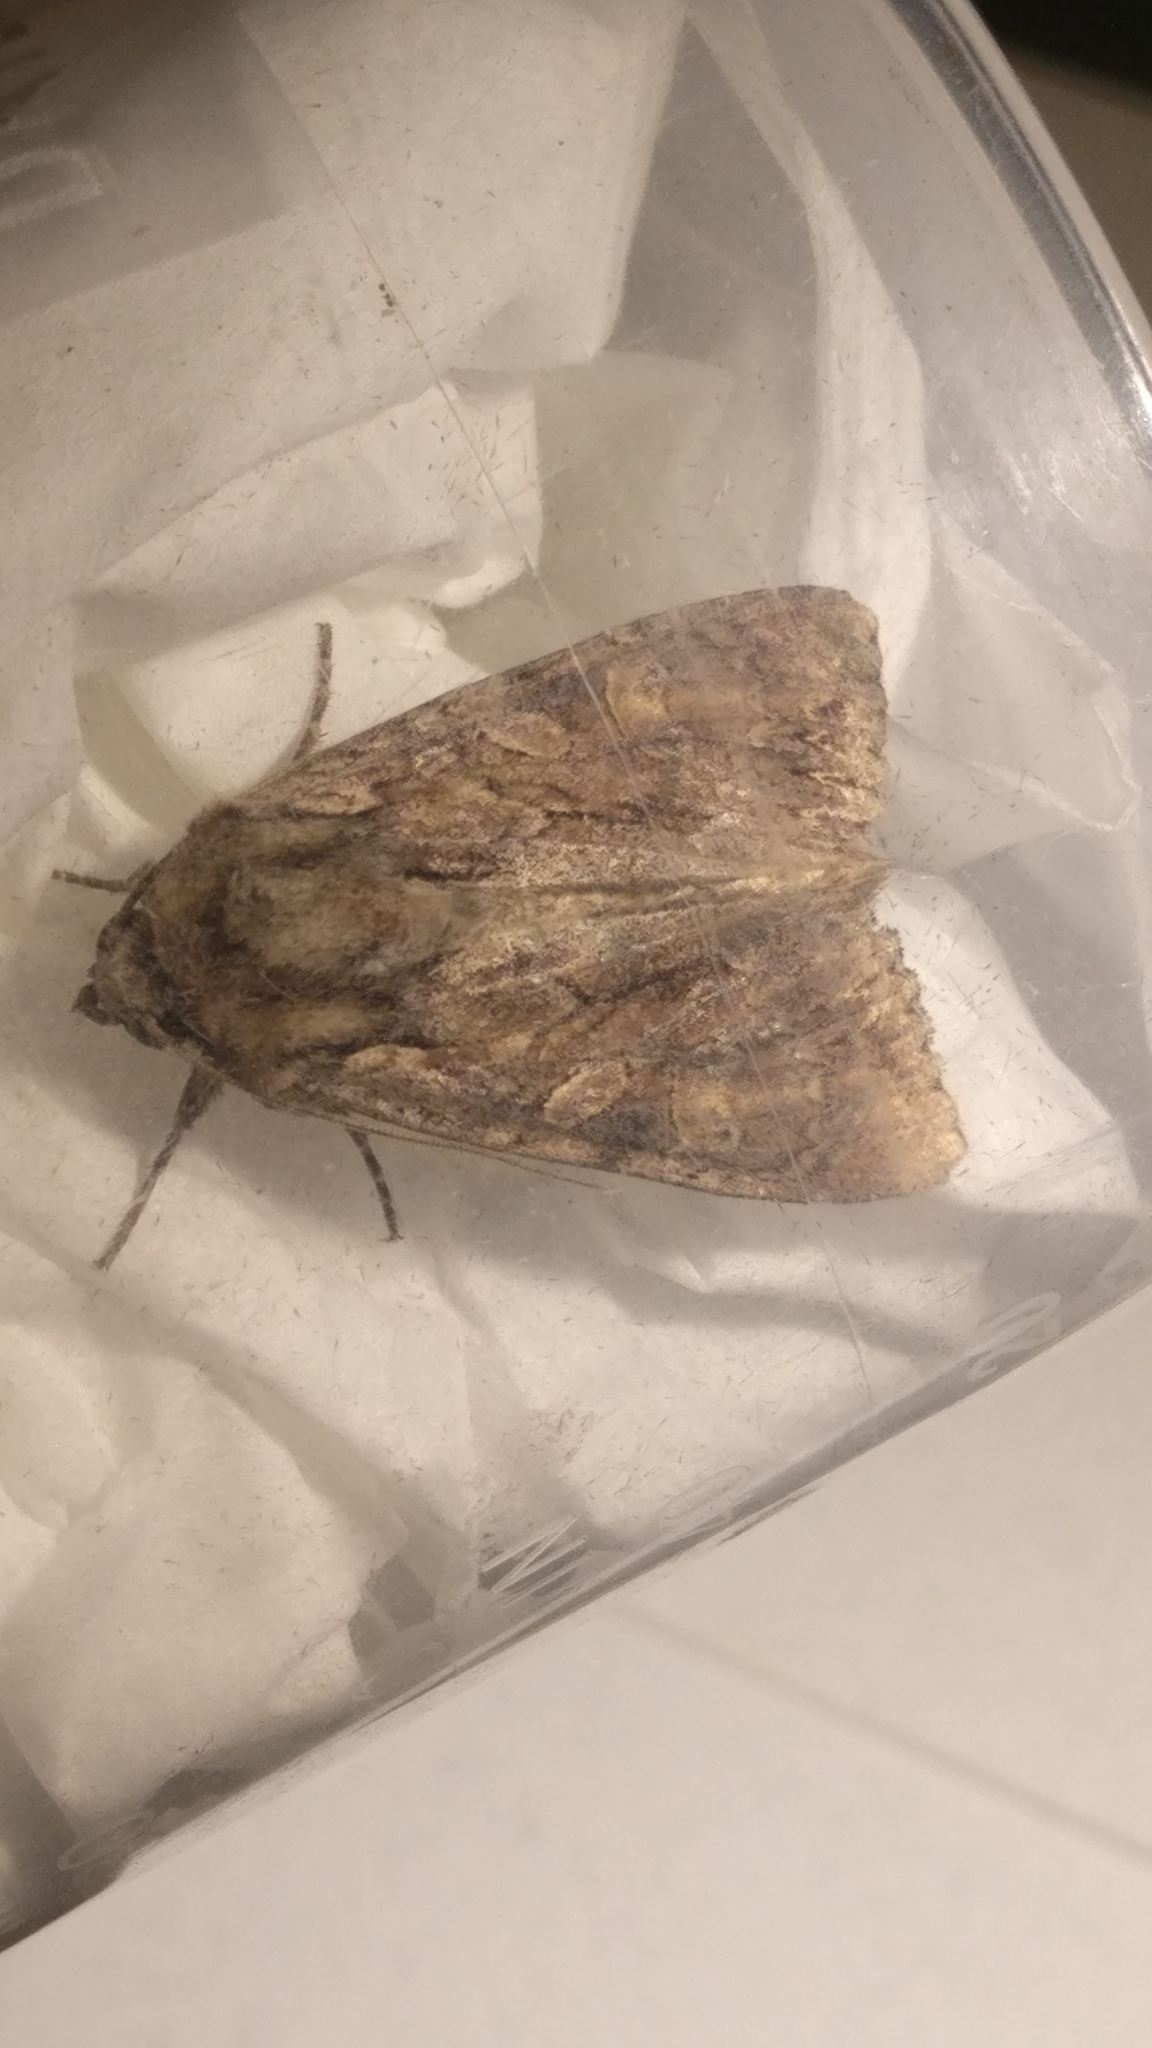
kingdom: Animalia
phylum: Arthropoda
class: Insecta
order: Lepidoptera
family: Noctuidae
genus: Apamea
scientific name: Apamea monoglypha
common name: Dark arches
